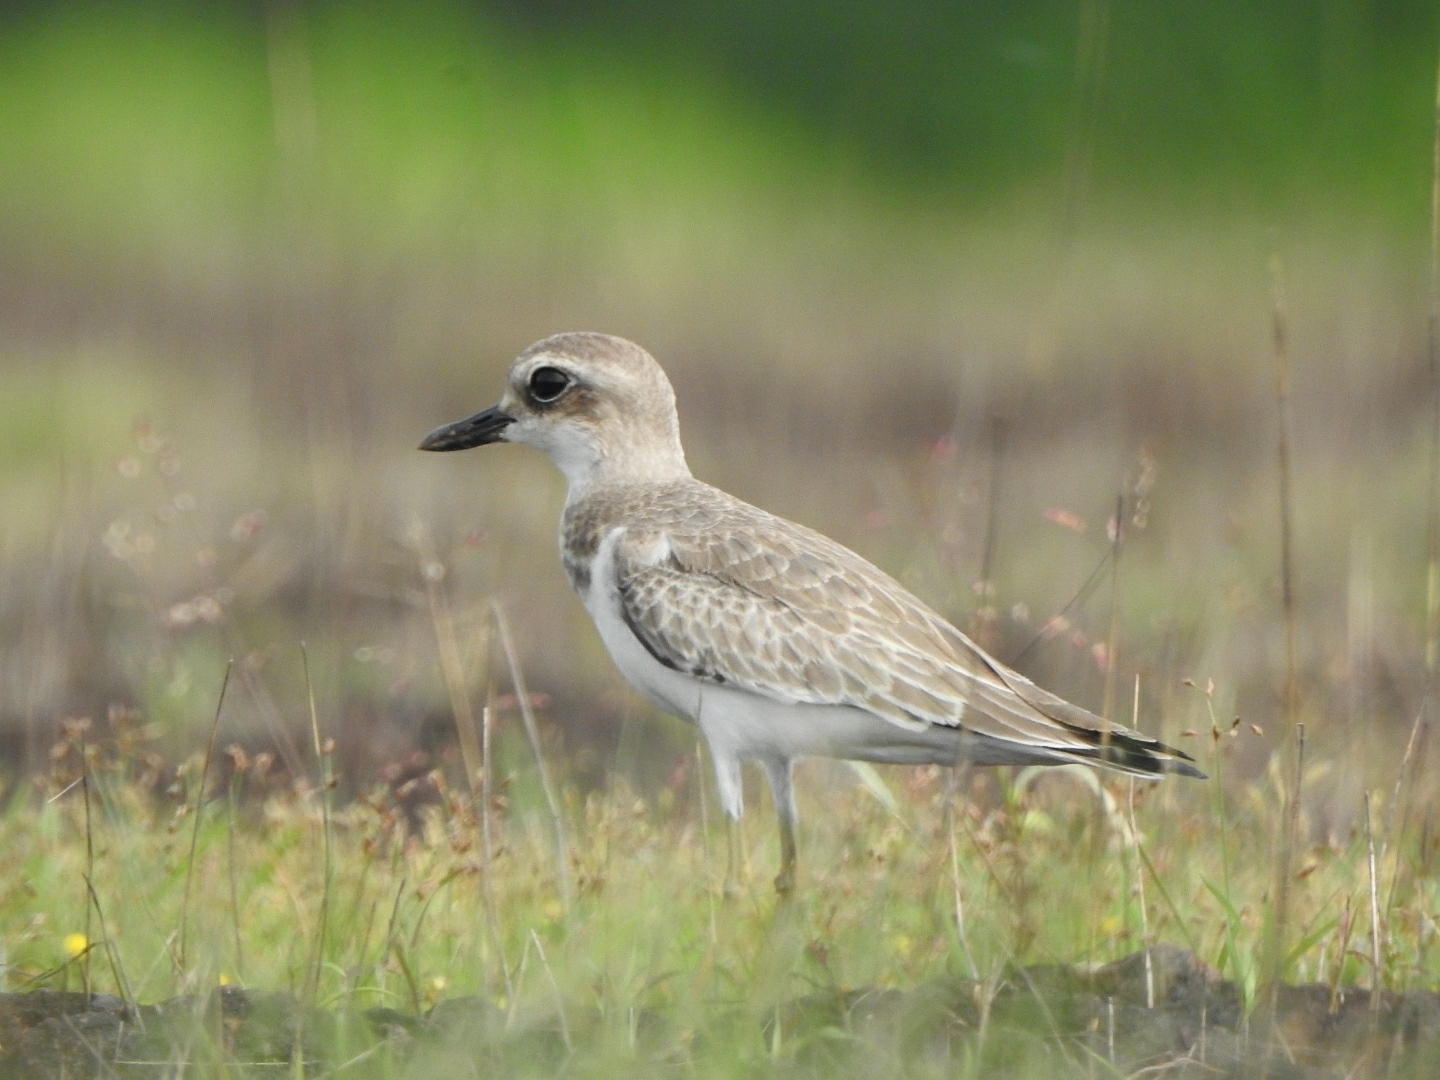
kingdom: Animalia
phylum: Chordata
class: Aves
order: Charadriiformes
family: Charadriidae
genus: Charadrius
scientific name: Charadrius leschenaultii
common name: Greater sand plover
